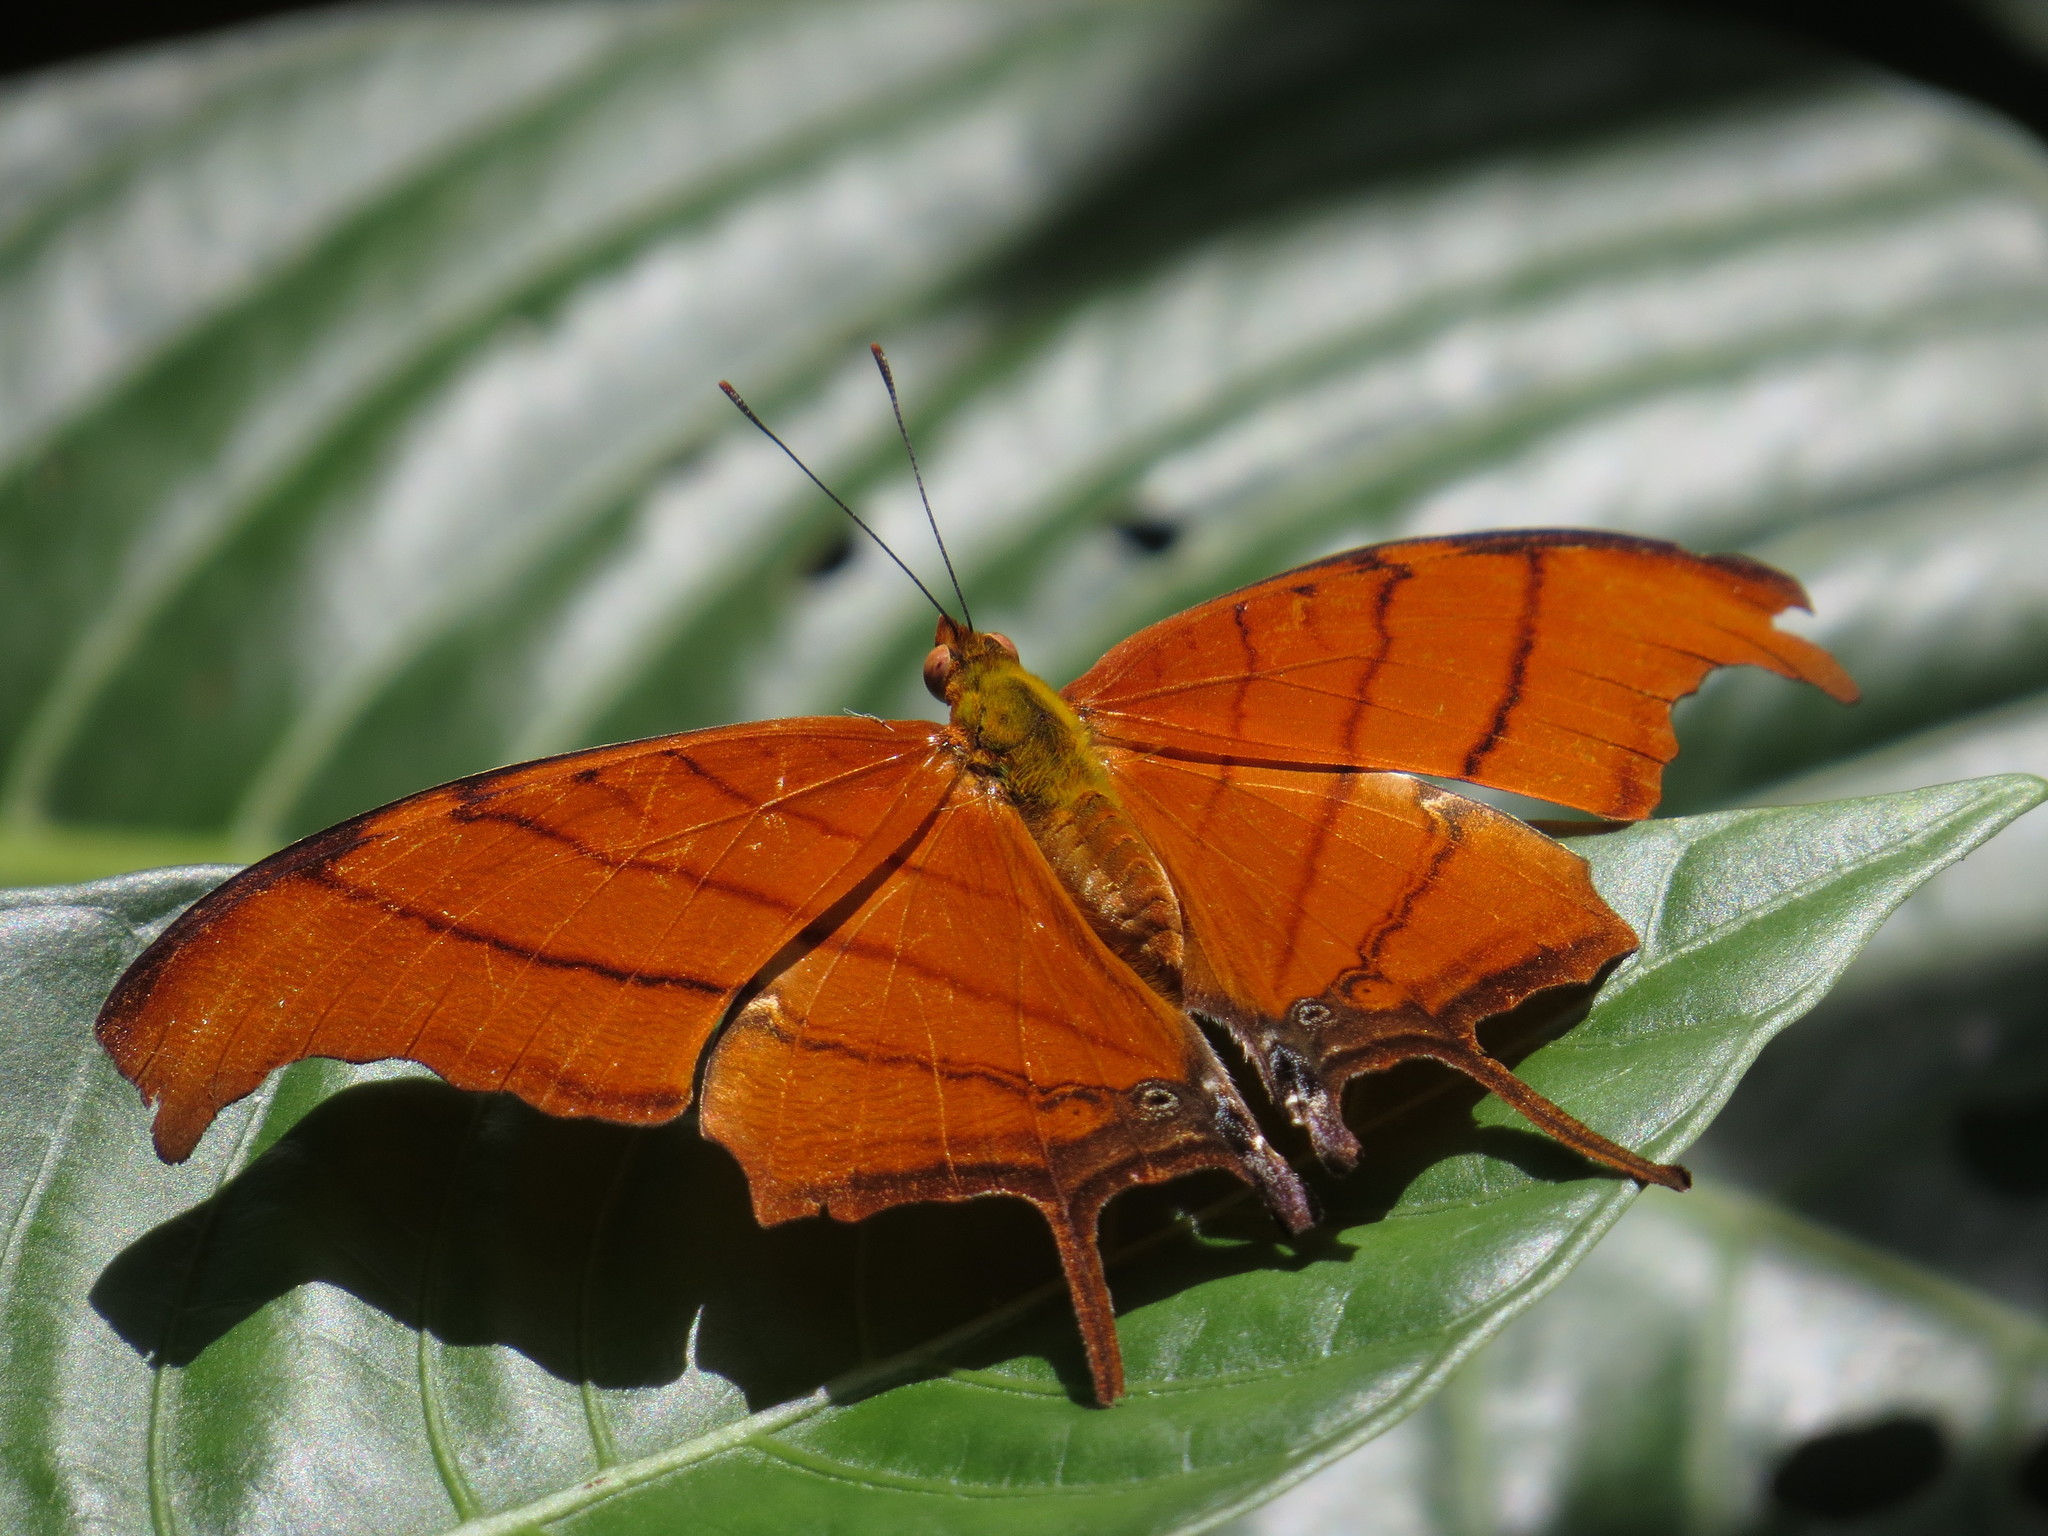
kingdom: Animalia
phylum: Arthropoda
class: Insecta
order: Lepidoptera
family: Nymphalidae
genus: Marpesia
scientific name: Marpesia petreus
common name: Red dagger wing
